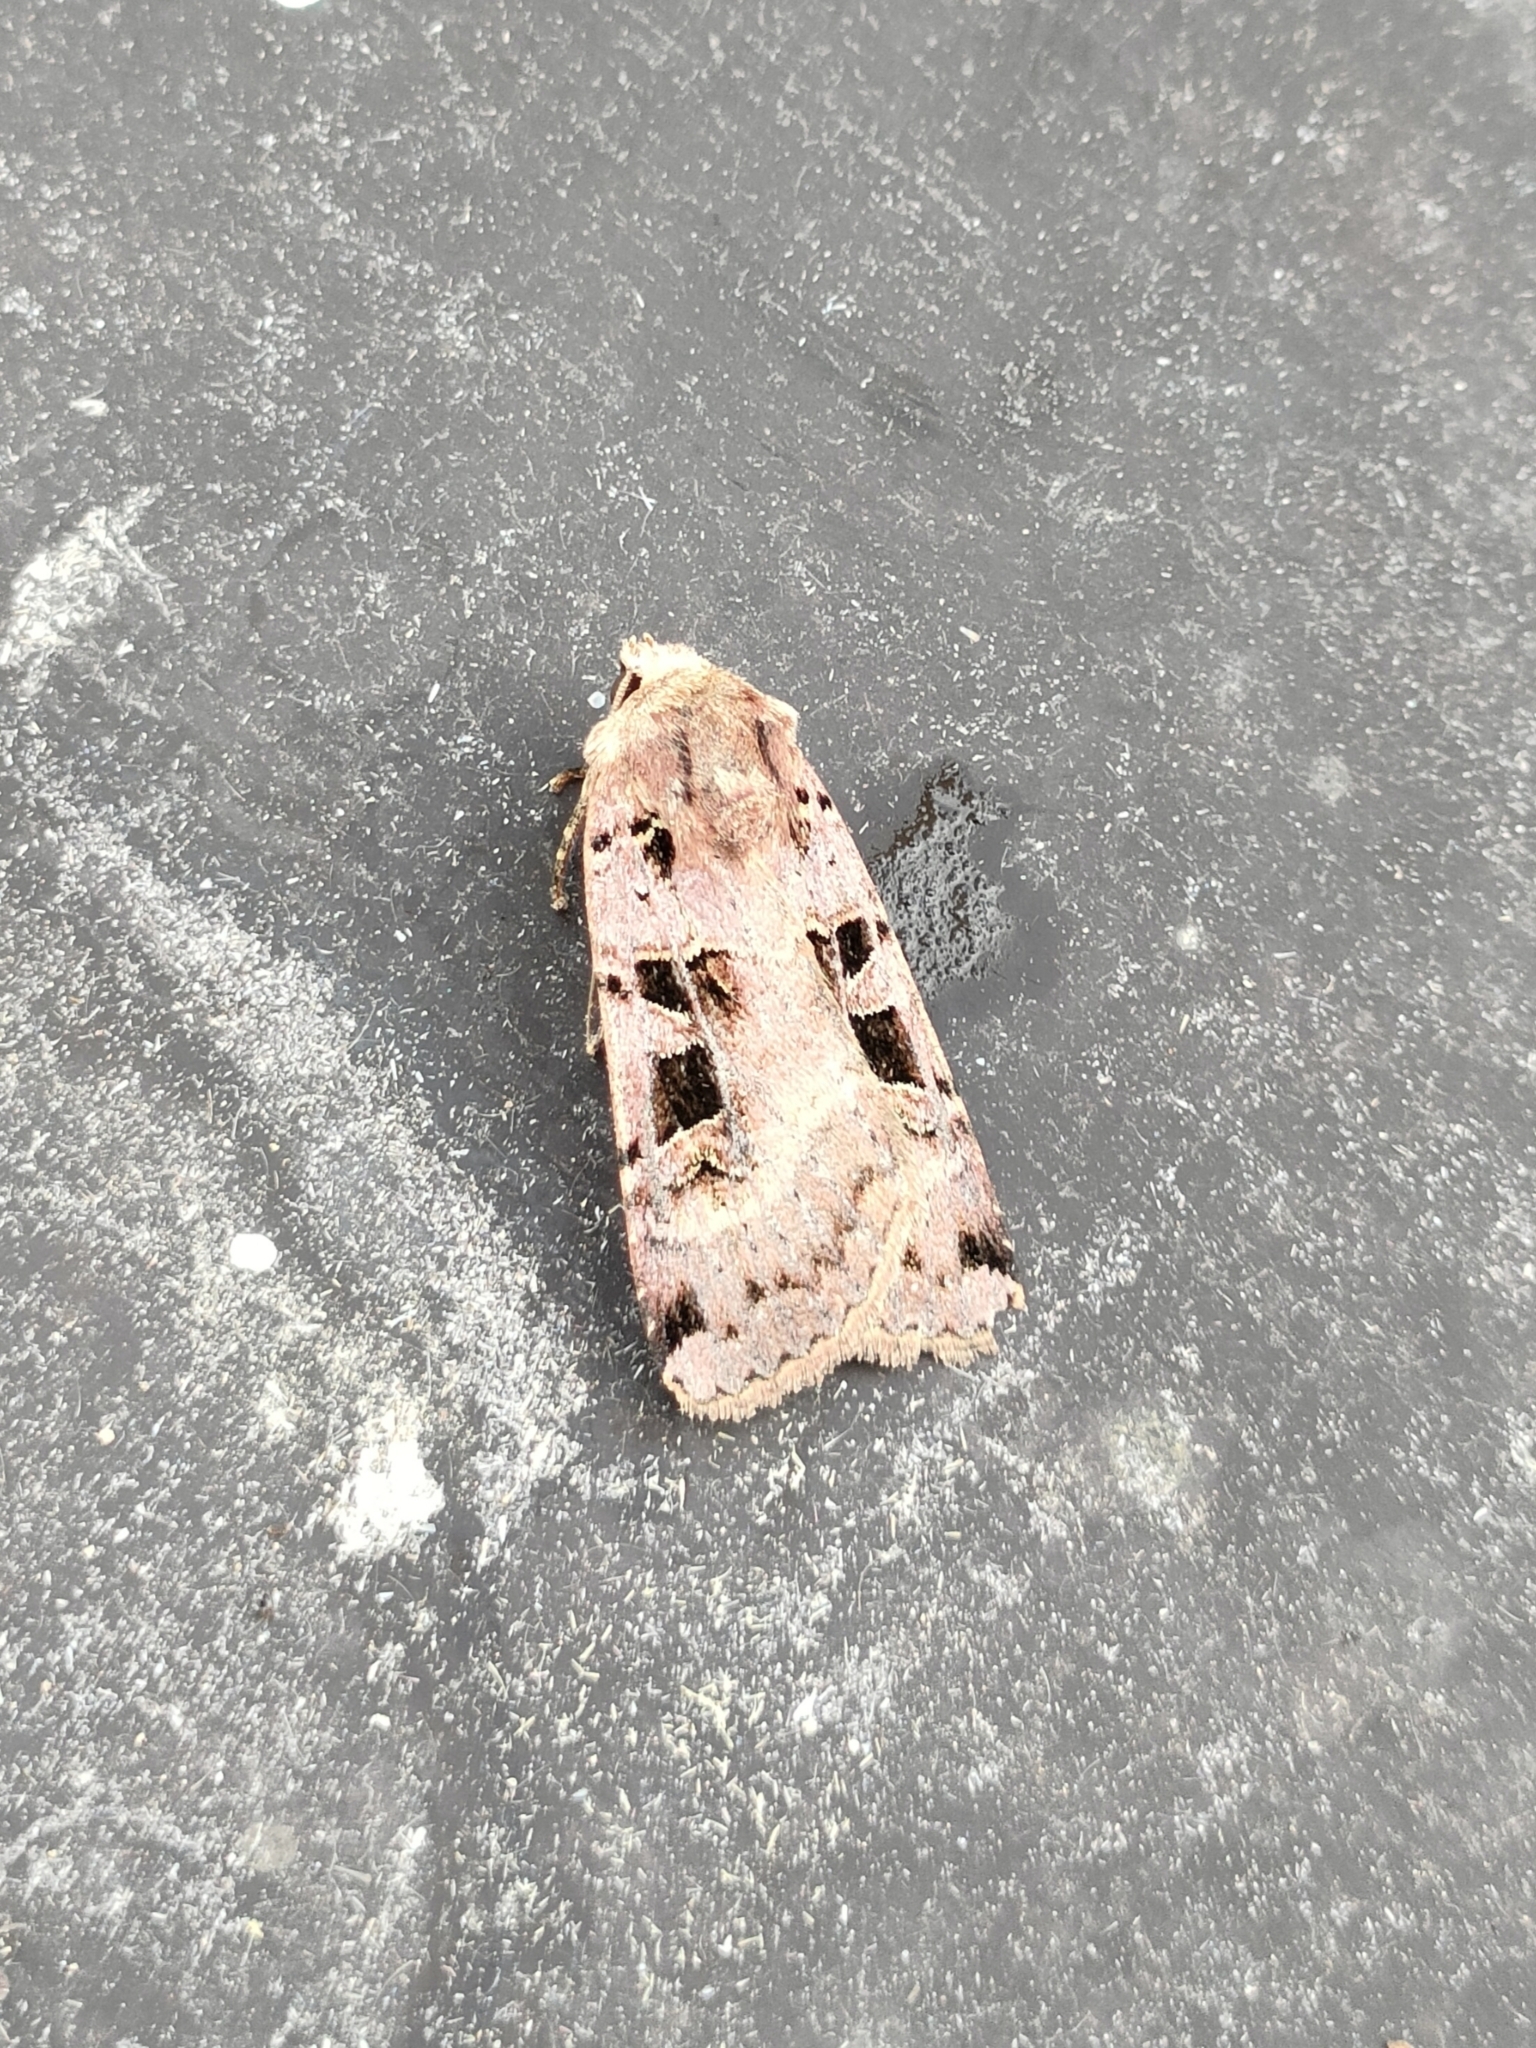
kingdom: Animalia
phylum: Arthropoda
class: Insecta
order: Lepidoptera
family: Noctuidae
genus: Xestia
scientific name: Xestia triangulum
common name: Double square-spot
